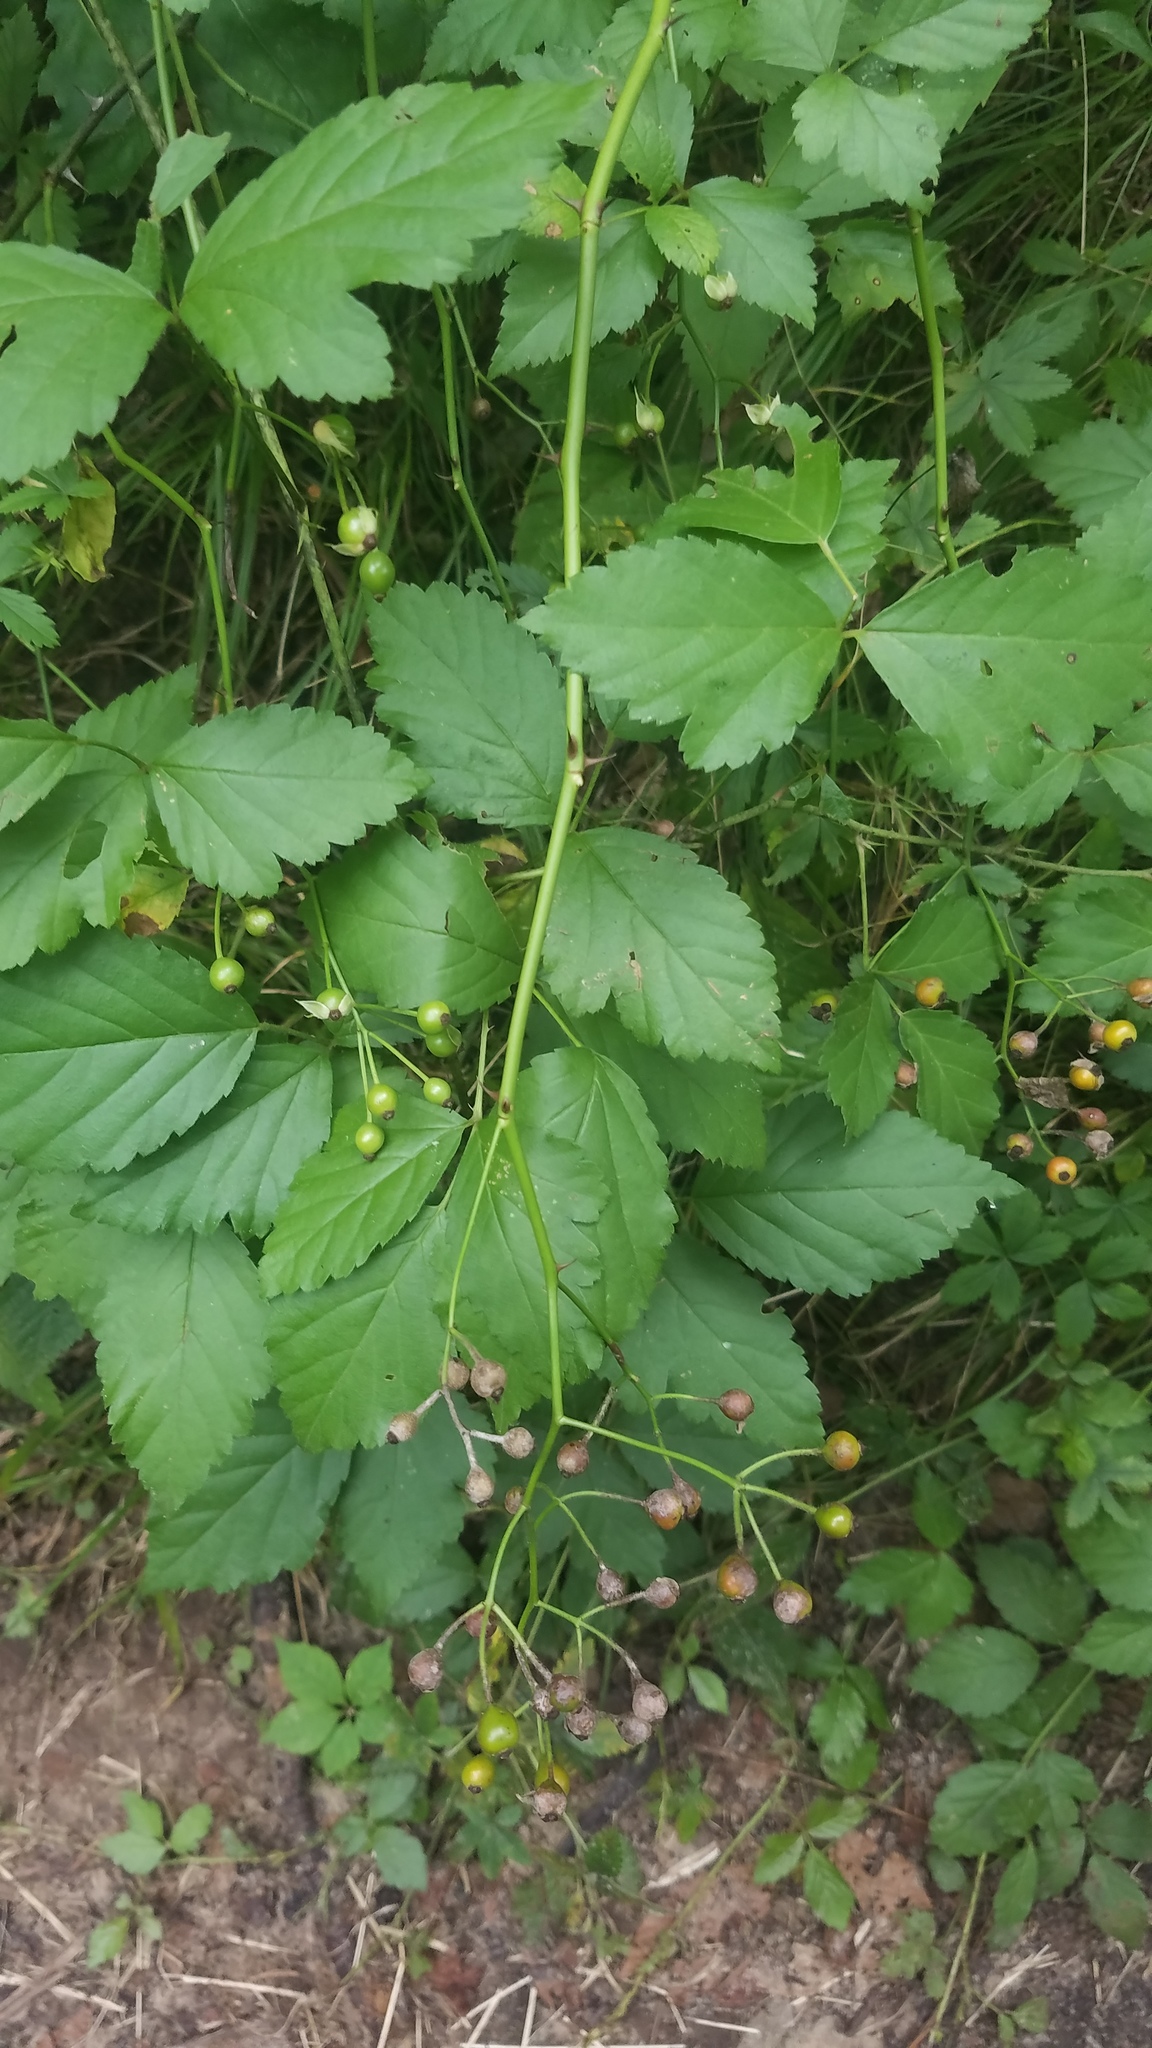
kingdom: Plantae
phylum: Tracheophyta
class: Magnoliopsida
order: Rosales
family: Rosaceae
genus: Rosa
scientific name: Rosa multiflora
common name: Multiflora rose
